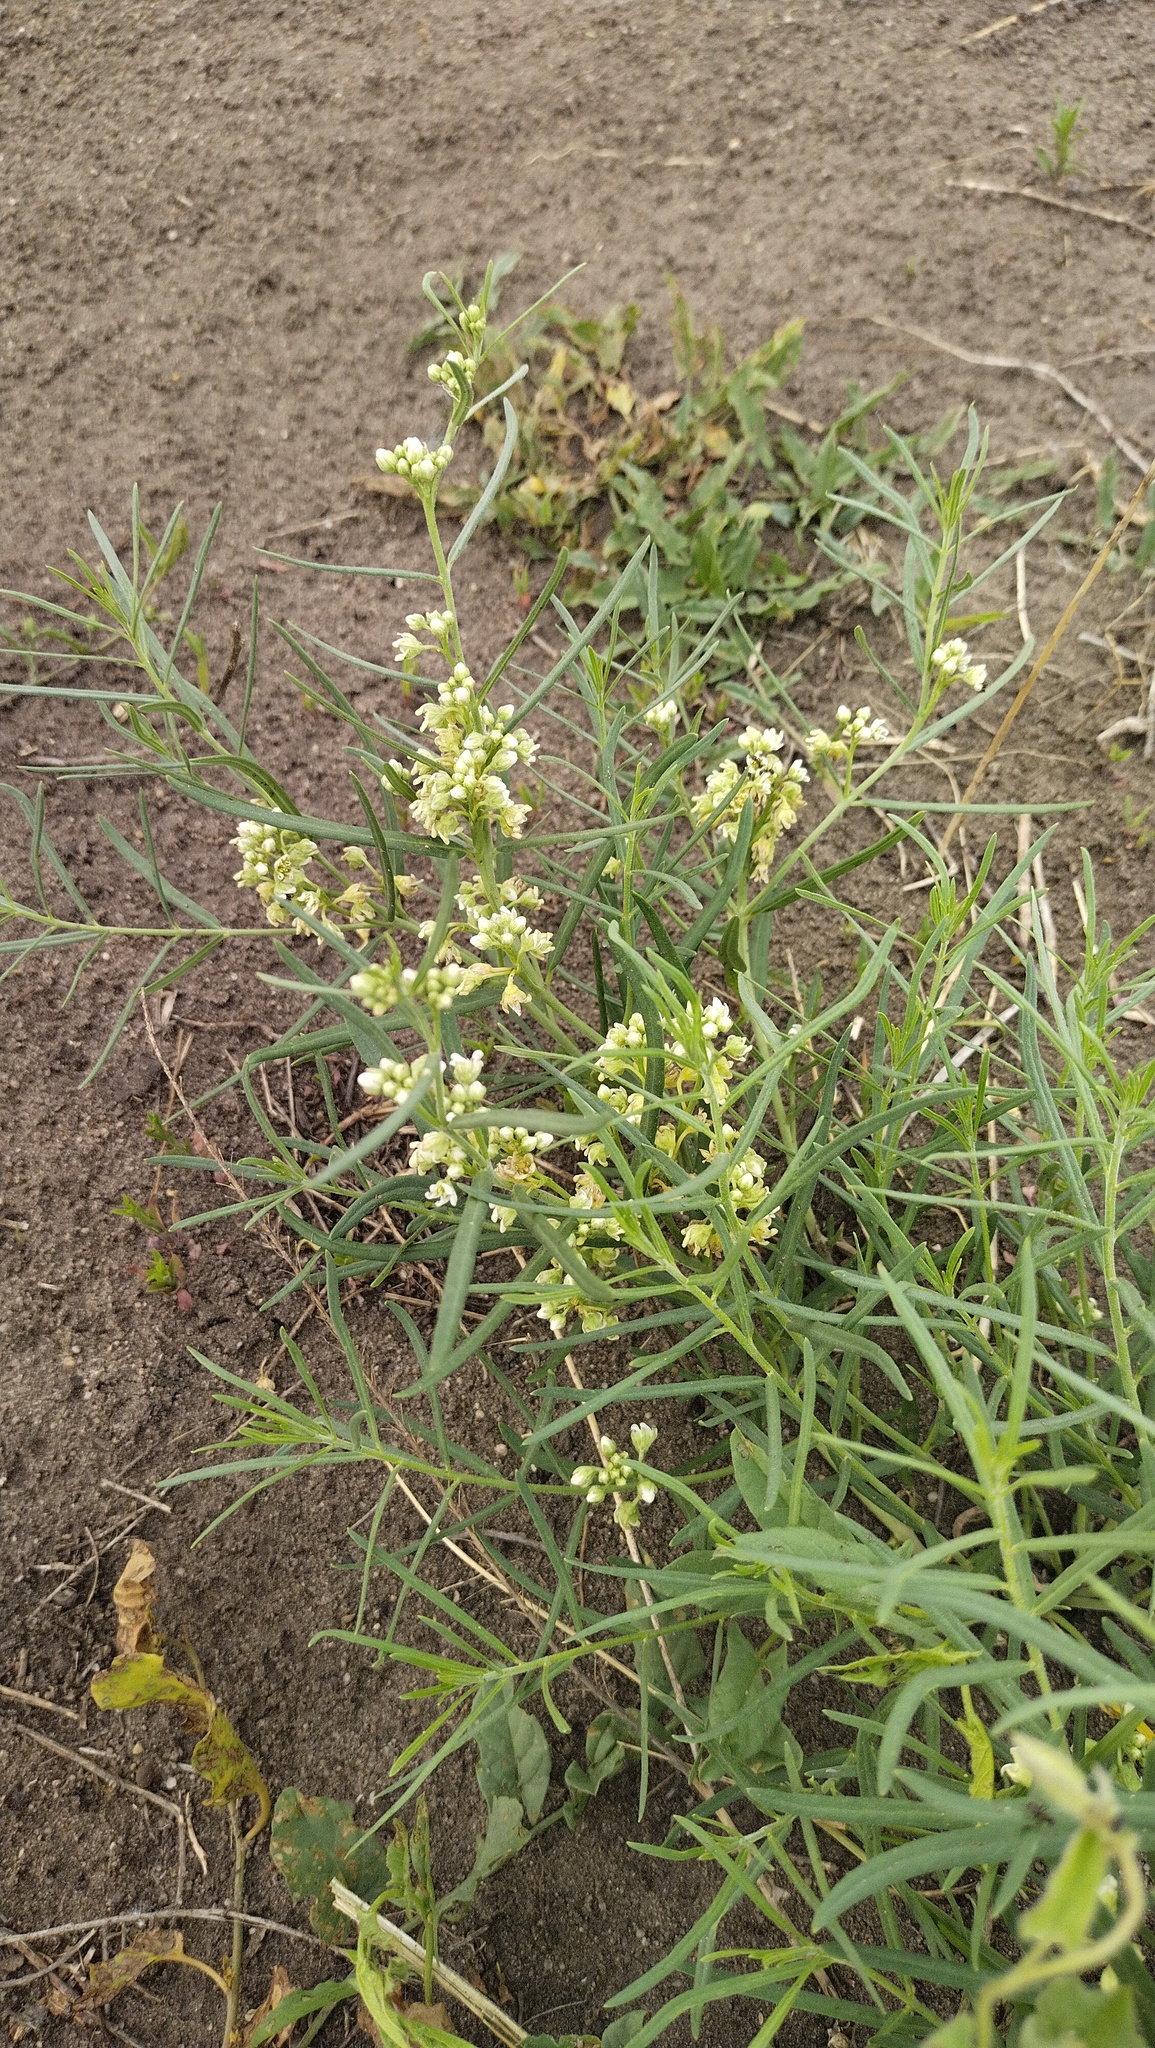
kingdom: Plantae
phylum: Tracheophyta
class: Magnoliopsida
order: Gentianales
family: Apocynaceae
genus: Cynanchum
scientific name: Cynanchum thesioides
